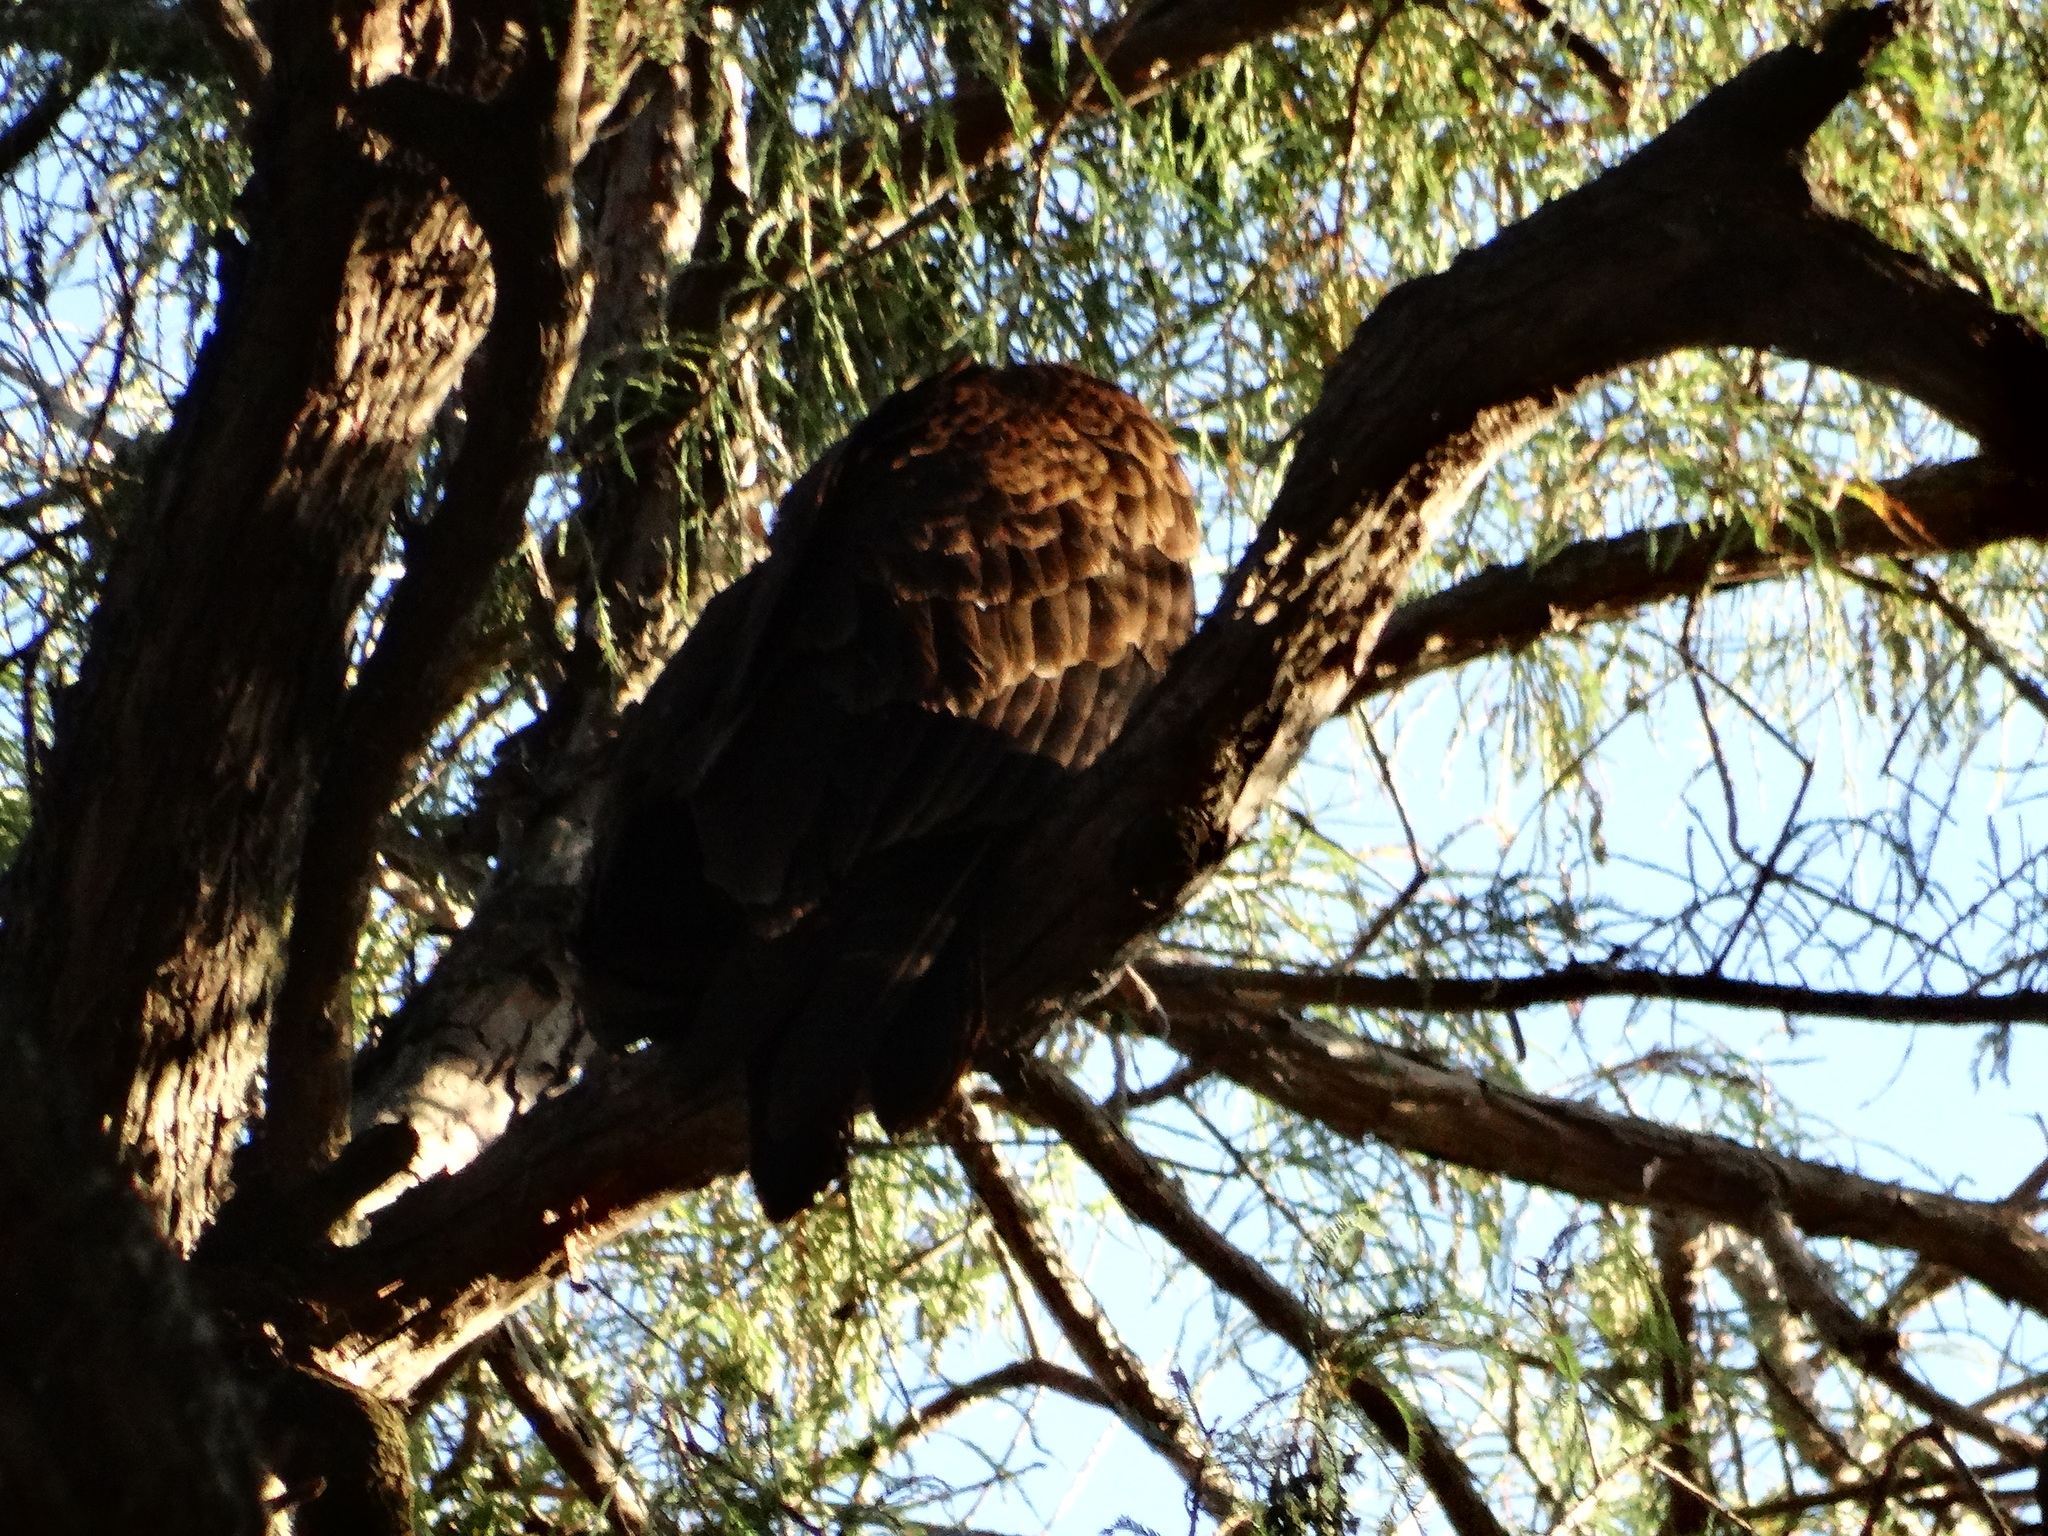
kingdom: Animalia
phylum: Chordata
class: Aves
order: Accipitriformes
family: Cathartidae
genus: Cathartes
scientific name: Cathartes aura
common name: Turkey vulture
